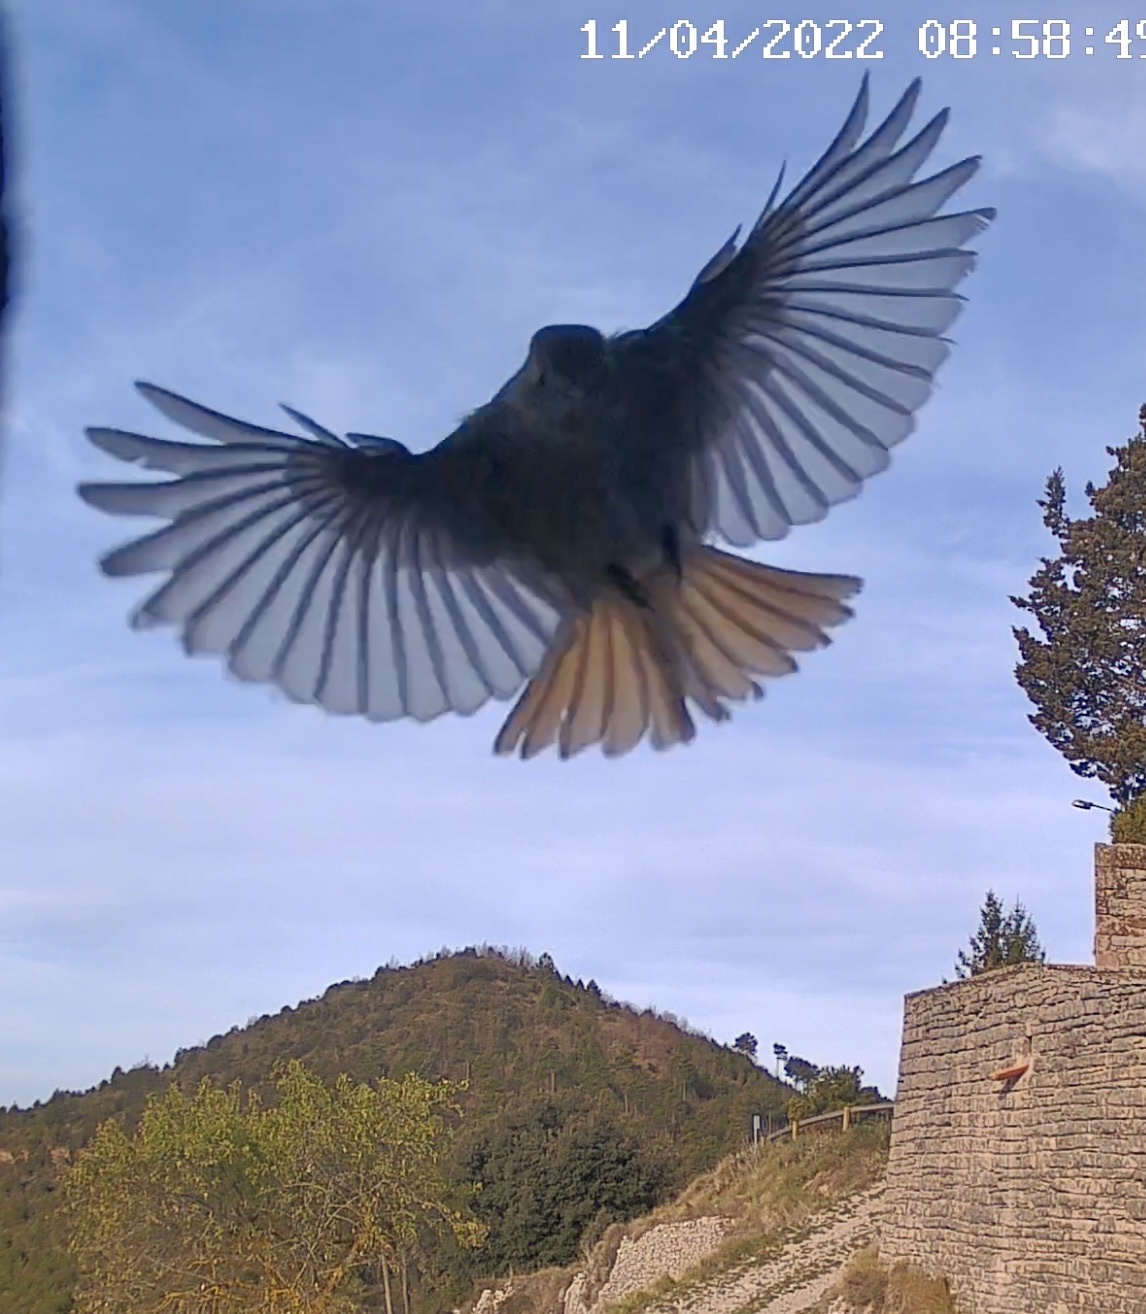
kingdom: Animalia
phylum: Chordata
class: Aves
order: Passeriformes
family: Muscicapidae
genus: Phoenicurus
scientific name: Phoenicurus ochruros
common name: Black redstart
